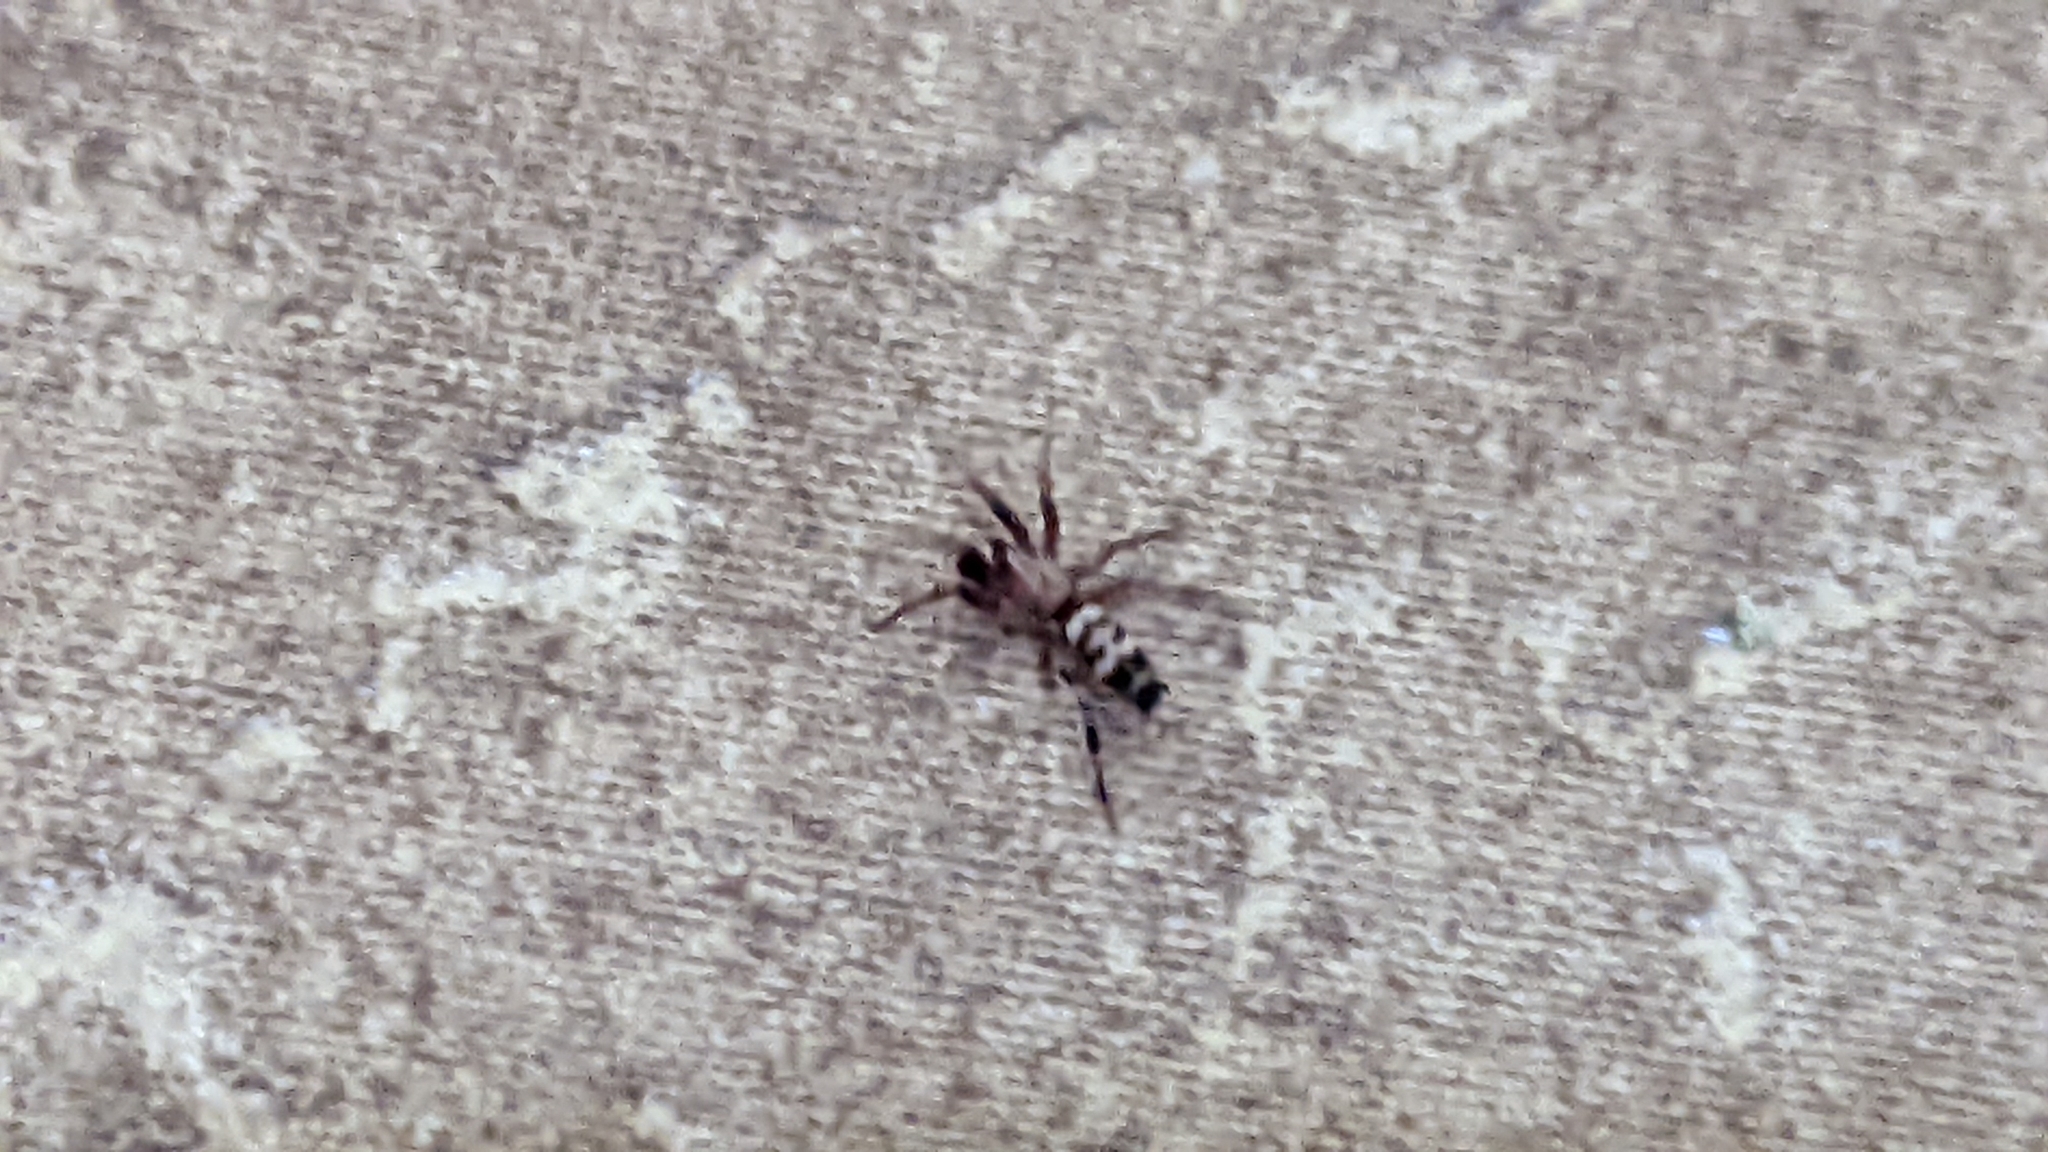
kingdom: Animalia
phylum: Arthropoda
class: Arachnida
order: Araneae
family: Gnaphosidae
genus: Sergiolus
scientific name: Sergiolus capulatus
